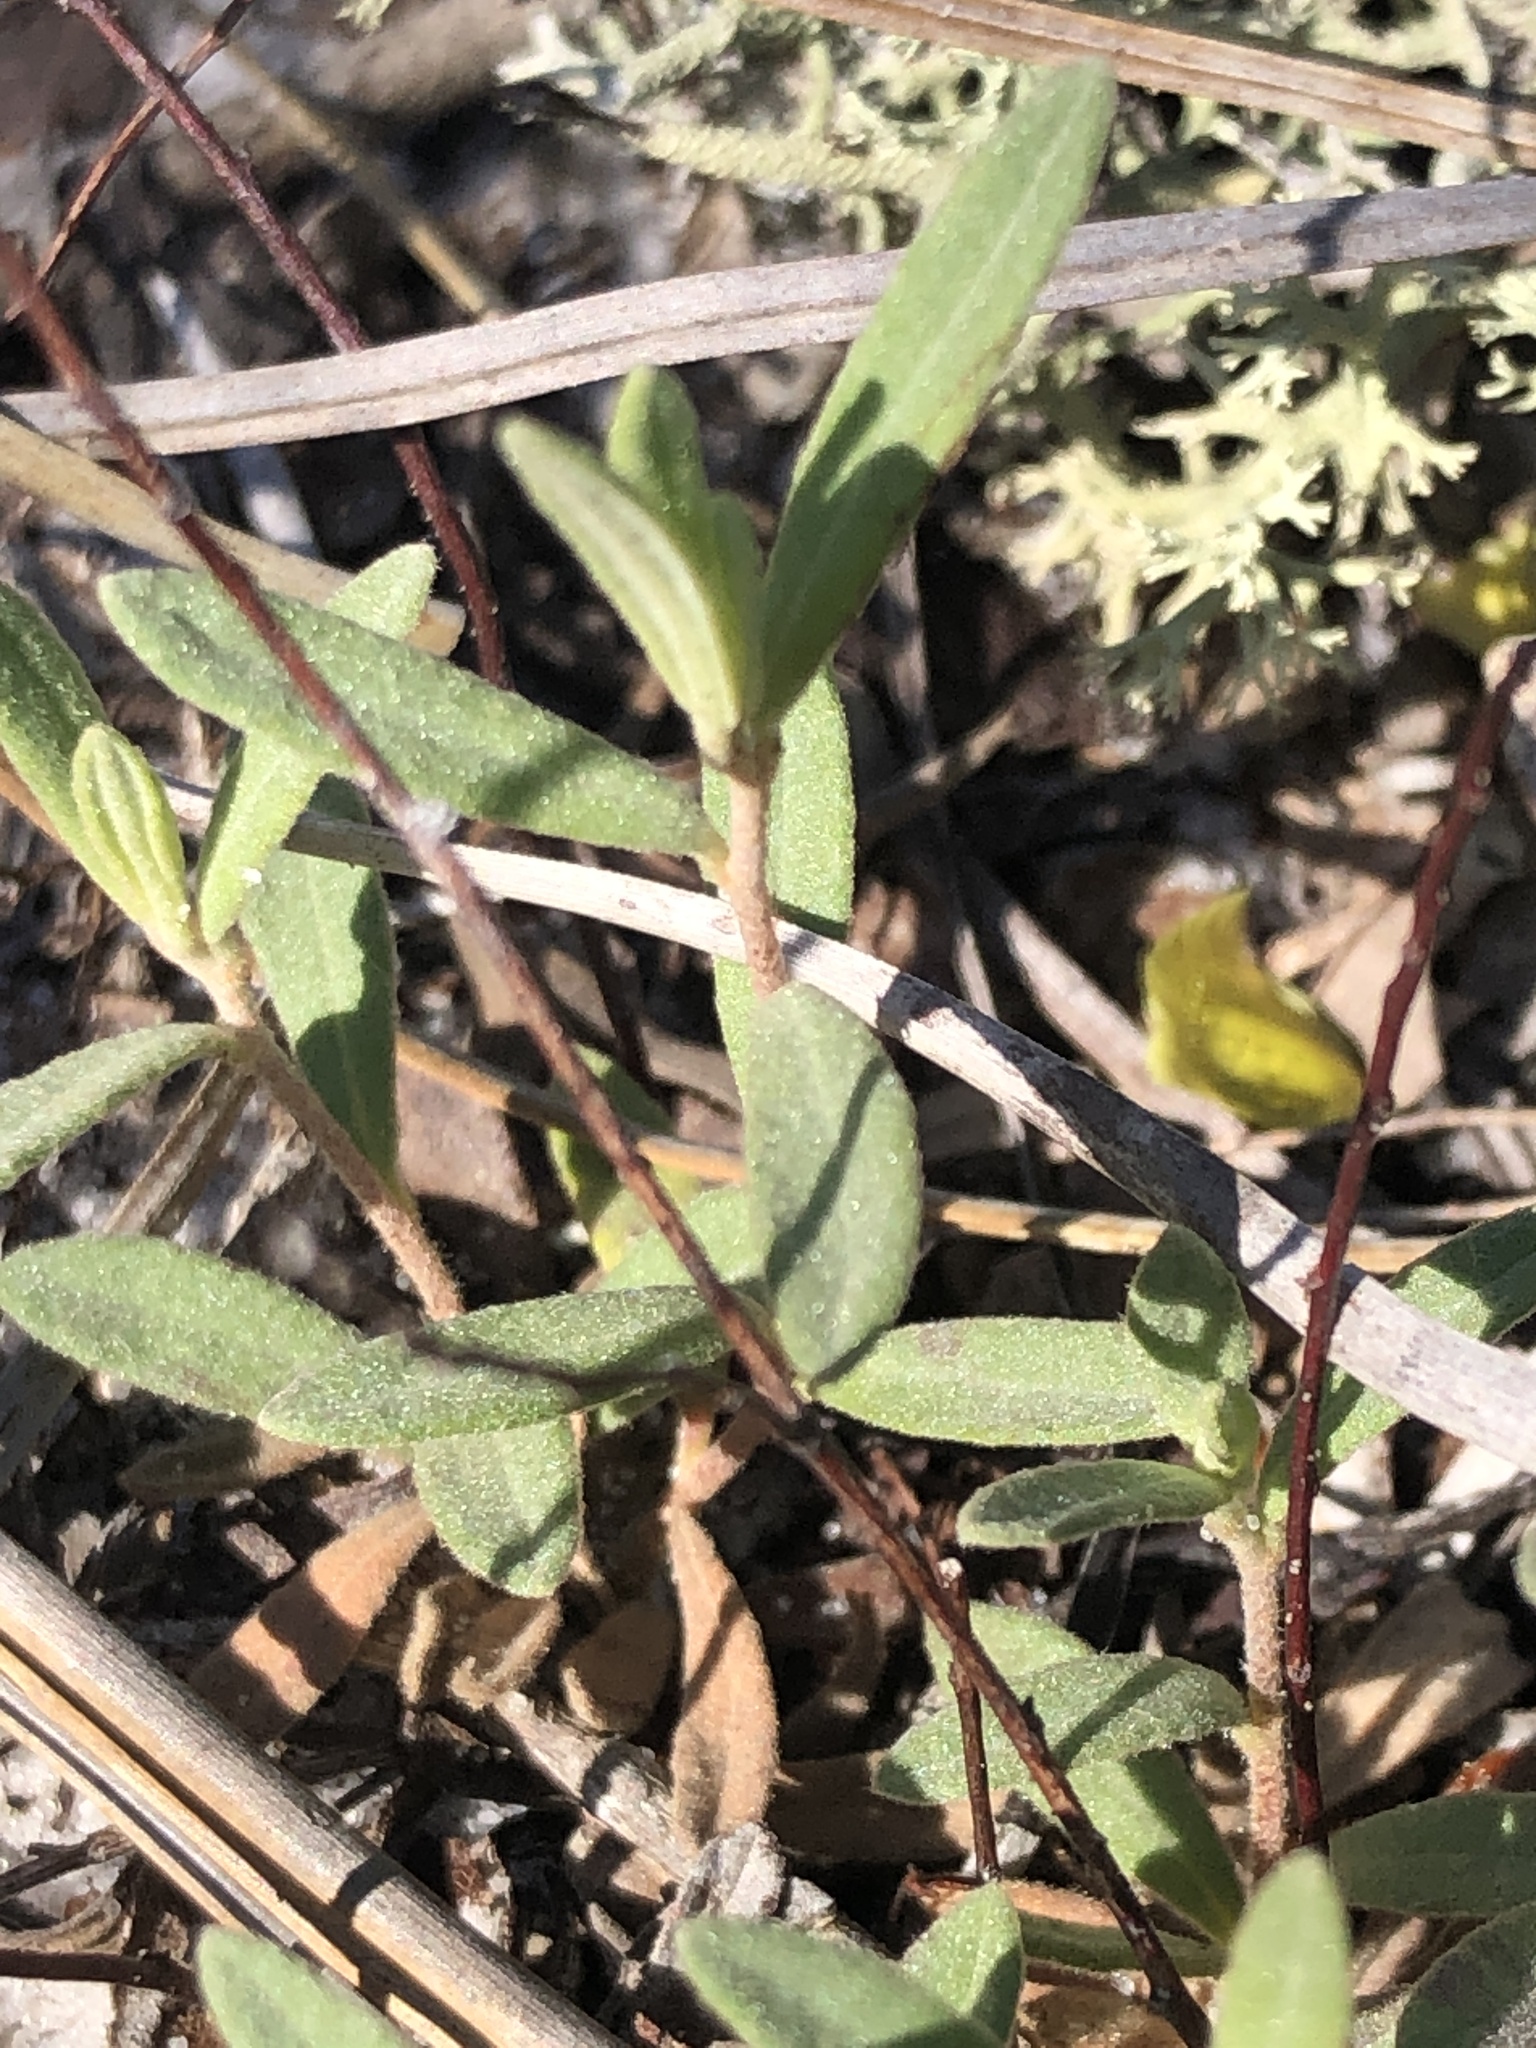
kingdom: Plantae
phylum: Tracheophyta
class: Magnoliopsida
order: Malvales
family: Cistaceae
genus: Crocanthemum
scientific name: Crocanthemum arenicola
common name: Gulf coast frostweed
